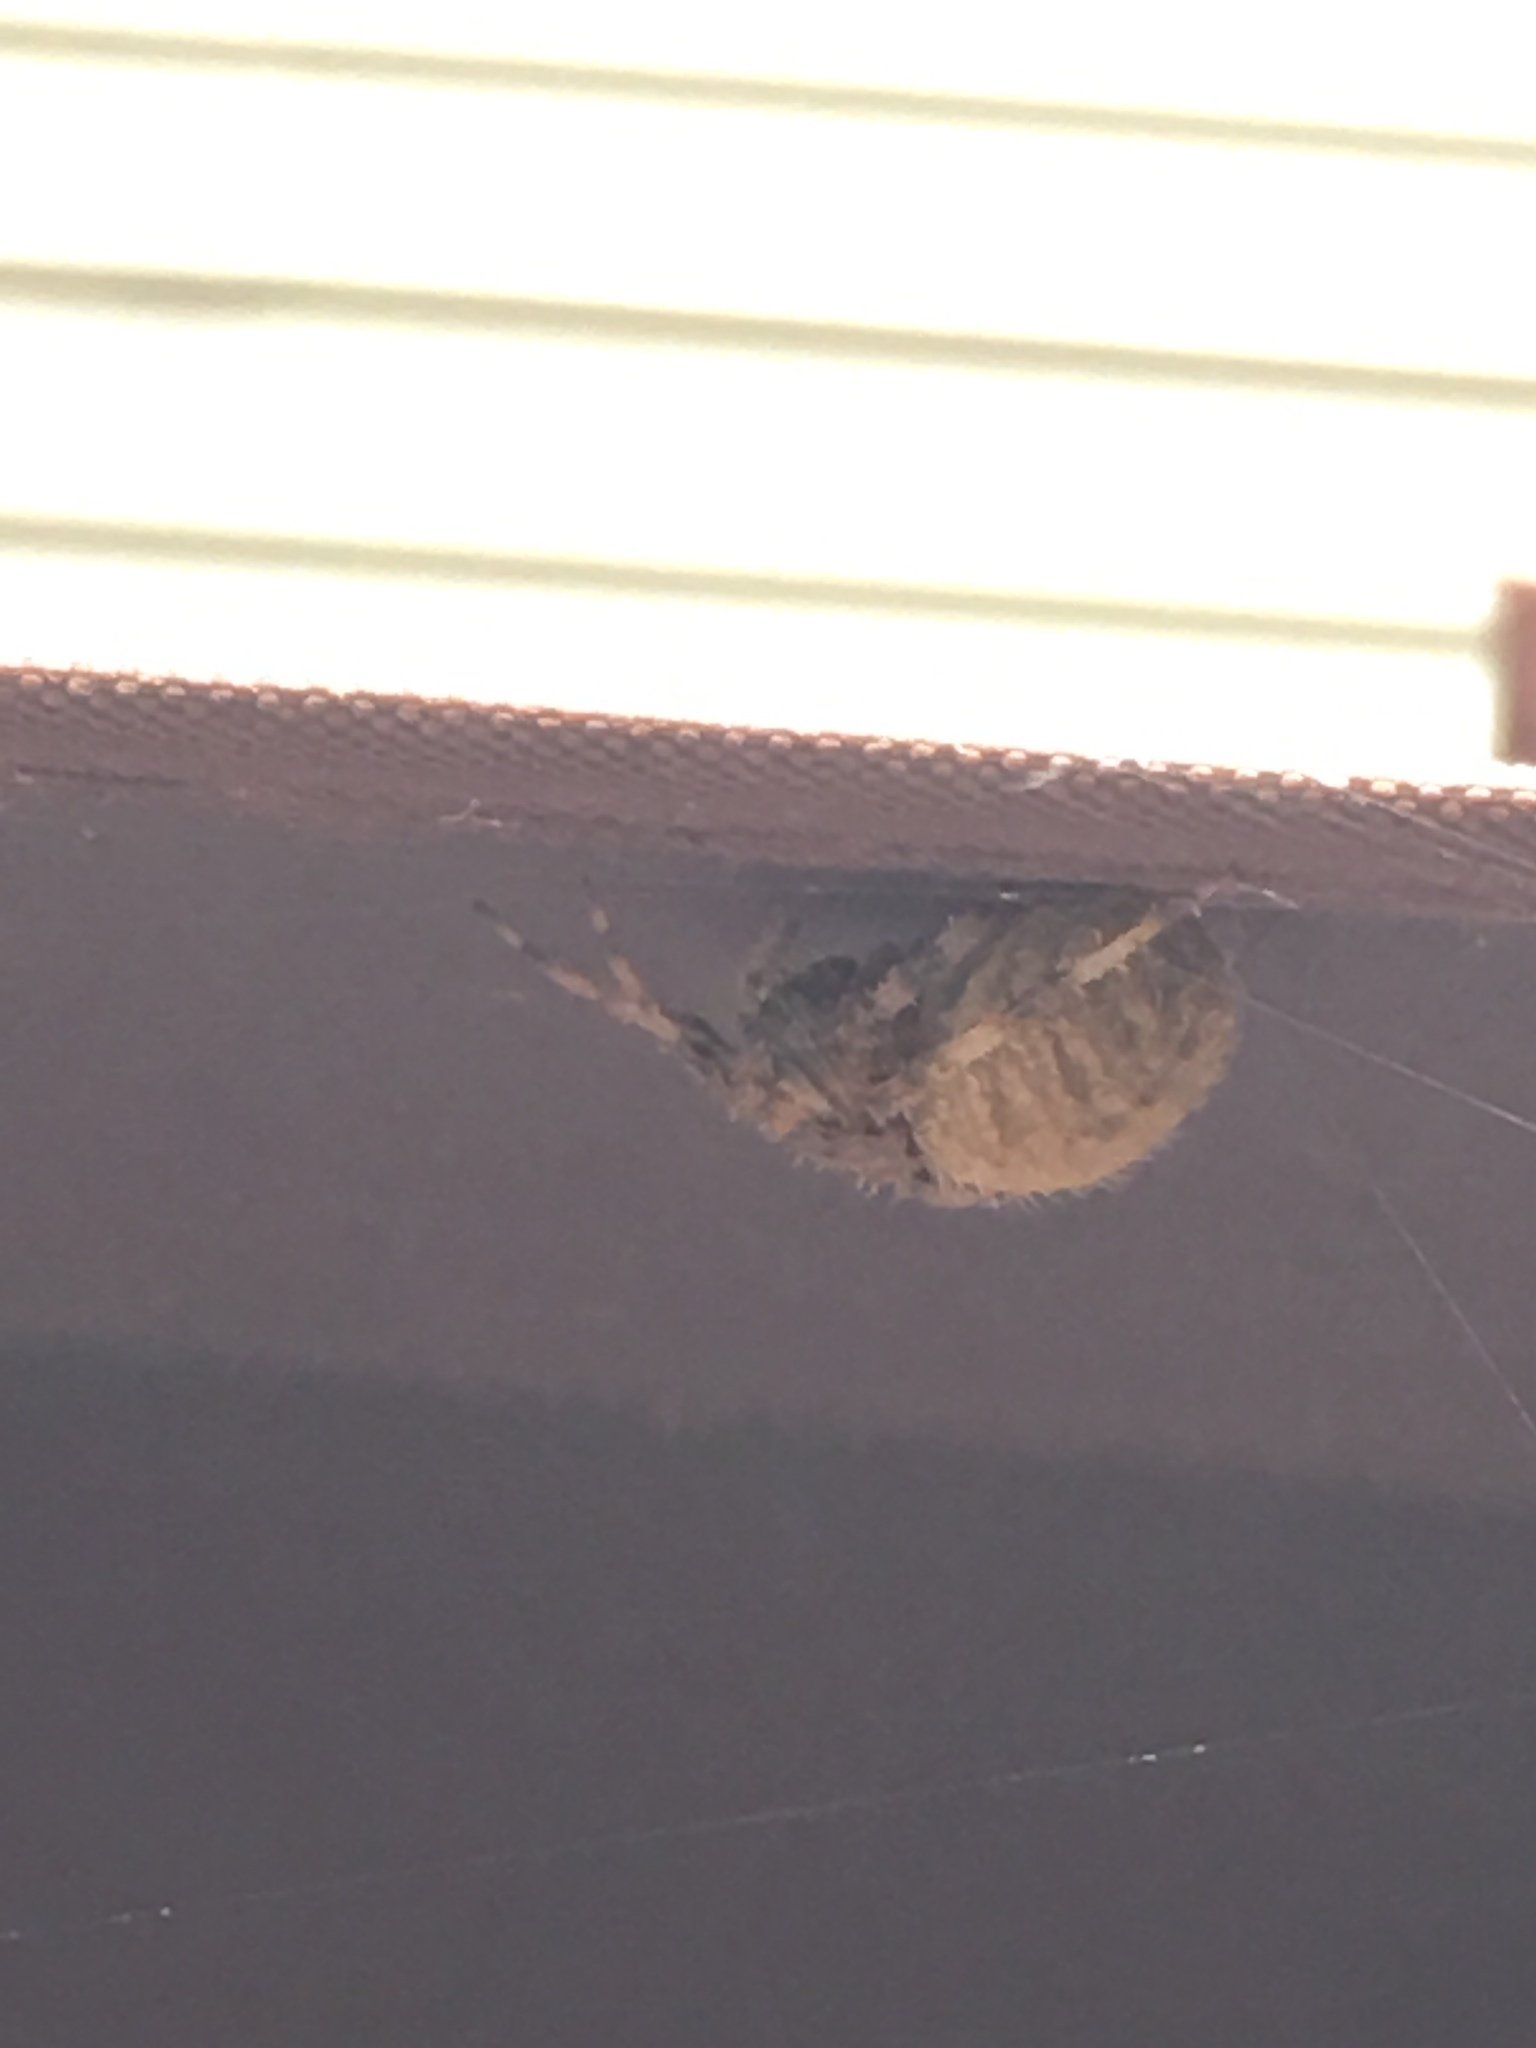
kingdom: Animalia
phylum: Arthropoda
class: Arachnida
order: Araneae
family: Araneidae
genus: Neoscona
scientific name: Neoscona crucifera
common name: Spotted orbweaver
